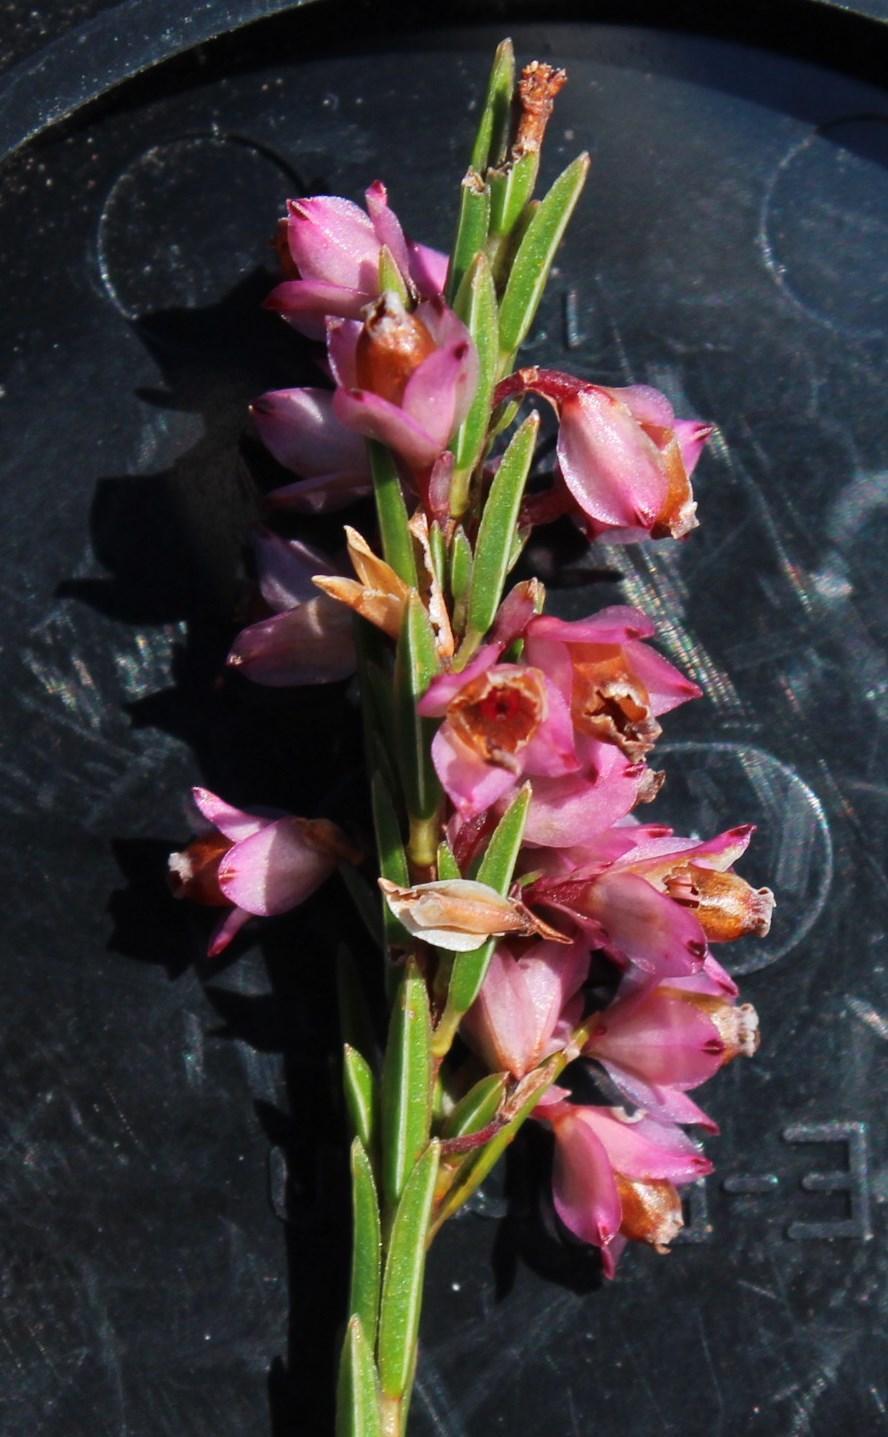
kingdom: Plantae
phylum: Tracheophyta
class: Magnoliopsida
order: Ericales
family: Ericaceae
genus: Erica
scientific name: Erica corifolia
